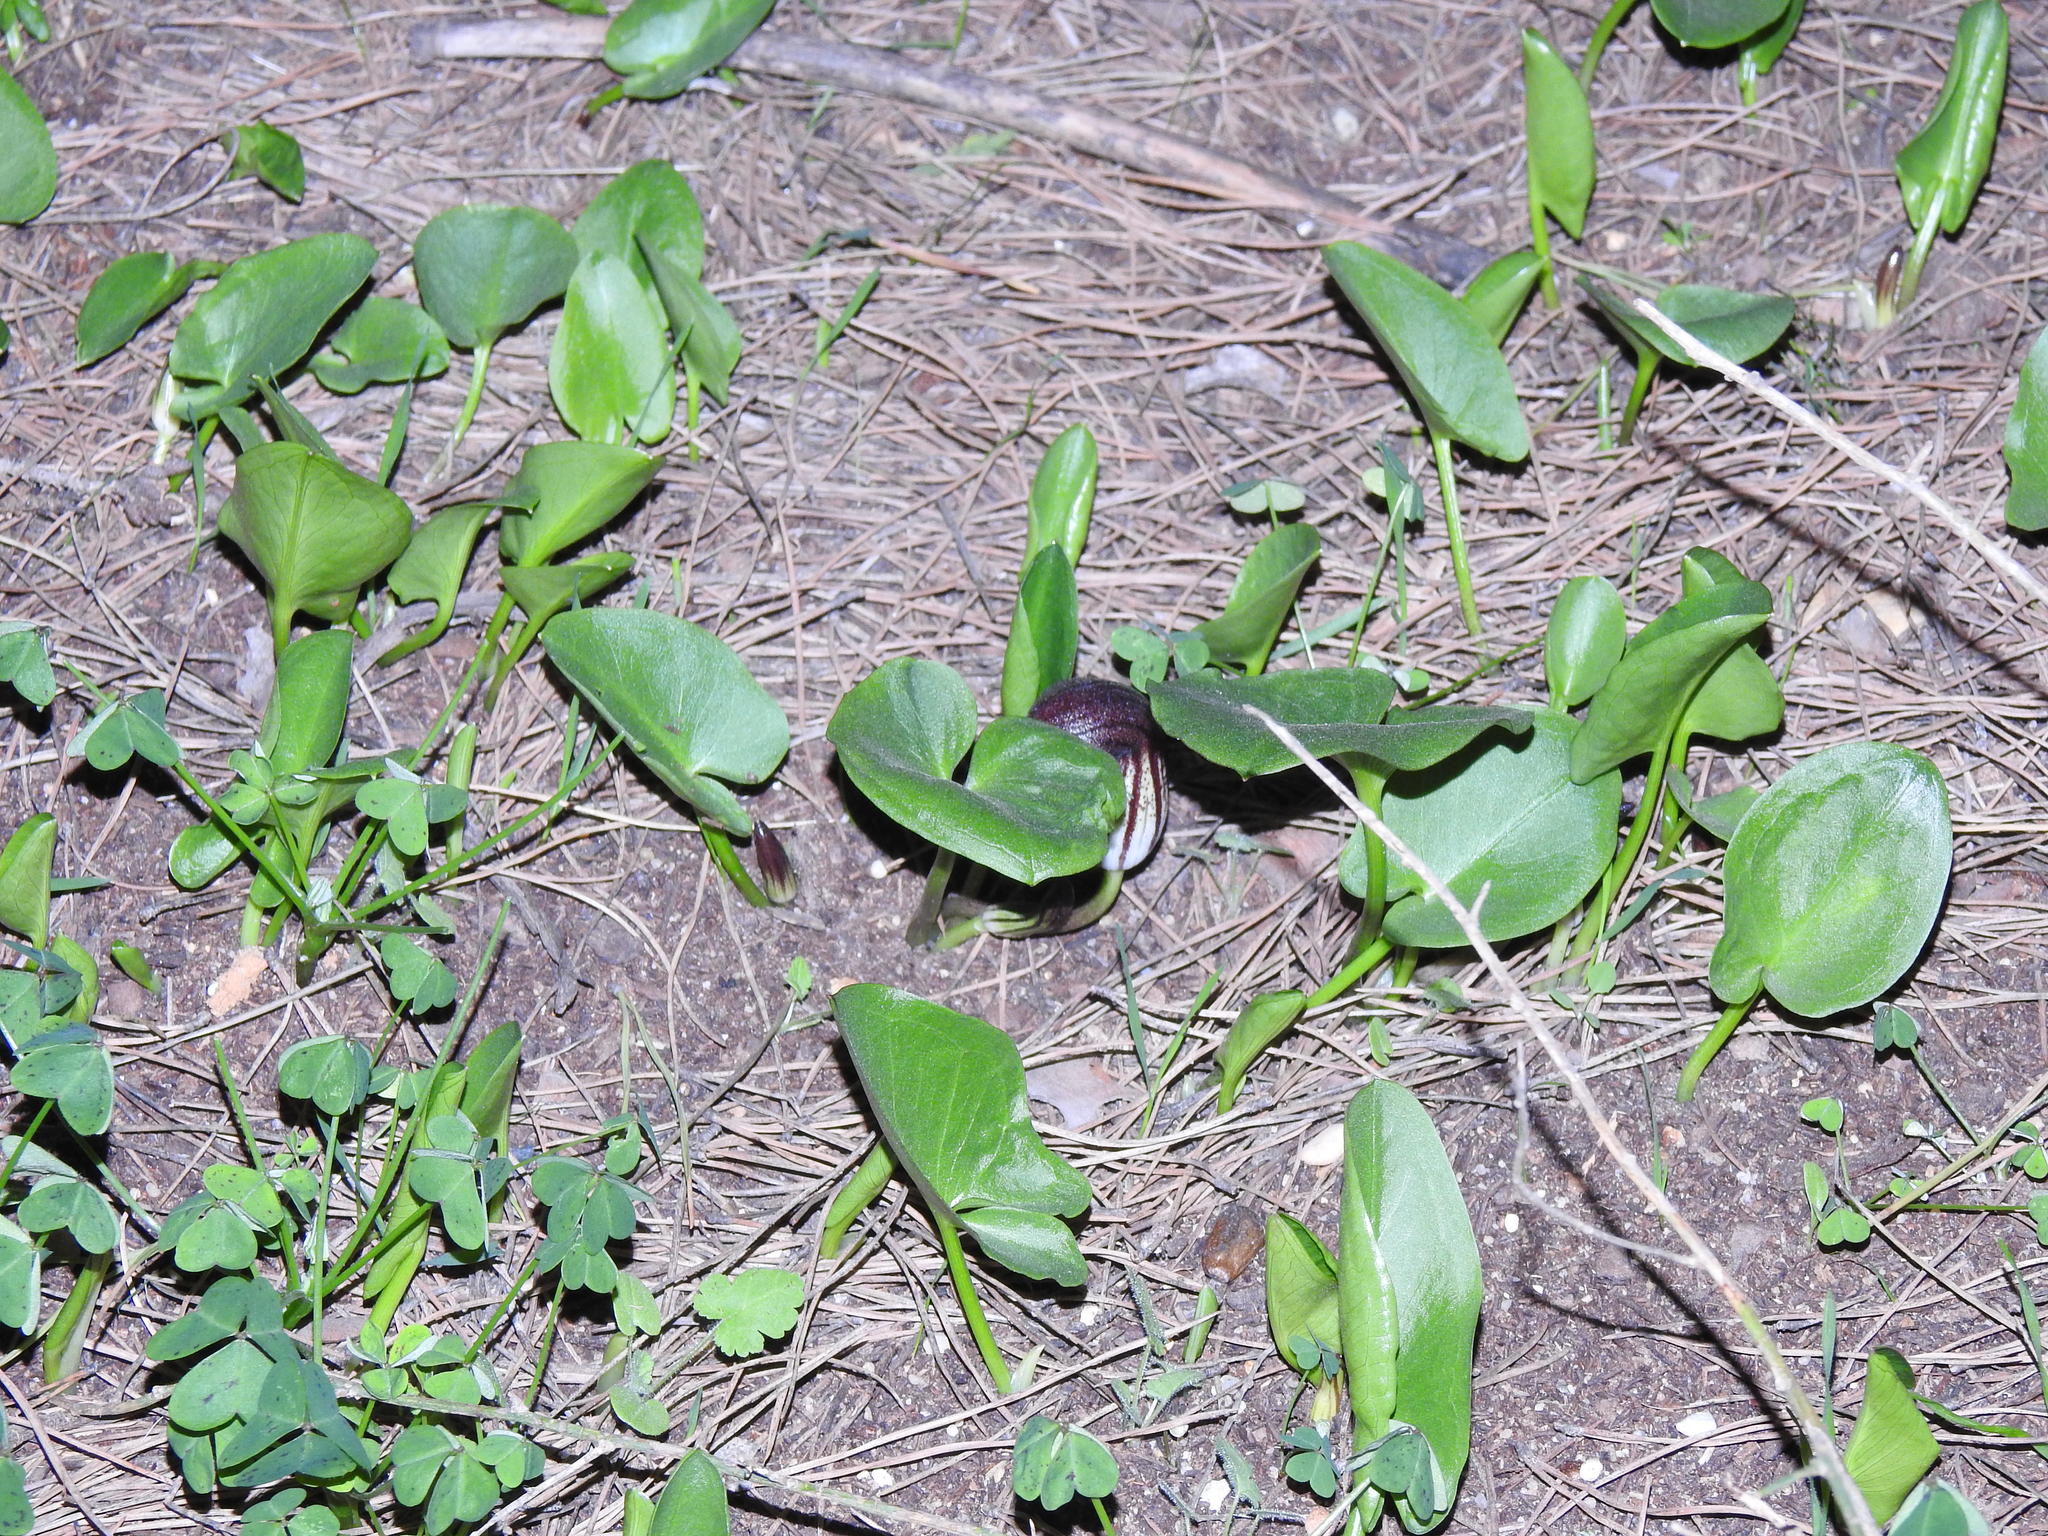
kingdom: Plantae
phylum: Tracheophyta
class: Liliopsida
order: Alismatales
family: Araceae
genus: Arisarum
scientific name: Arisarum simorrhinum
